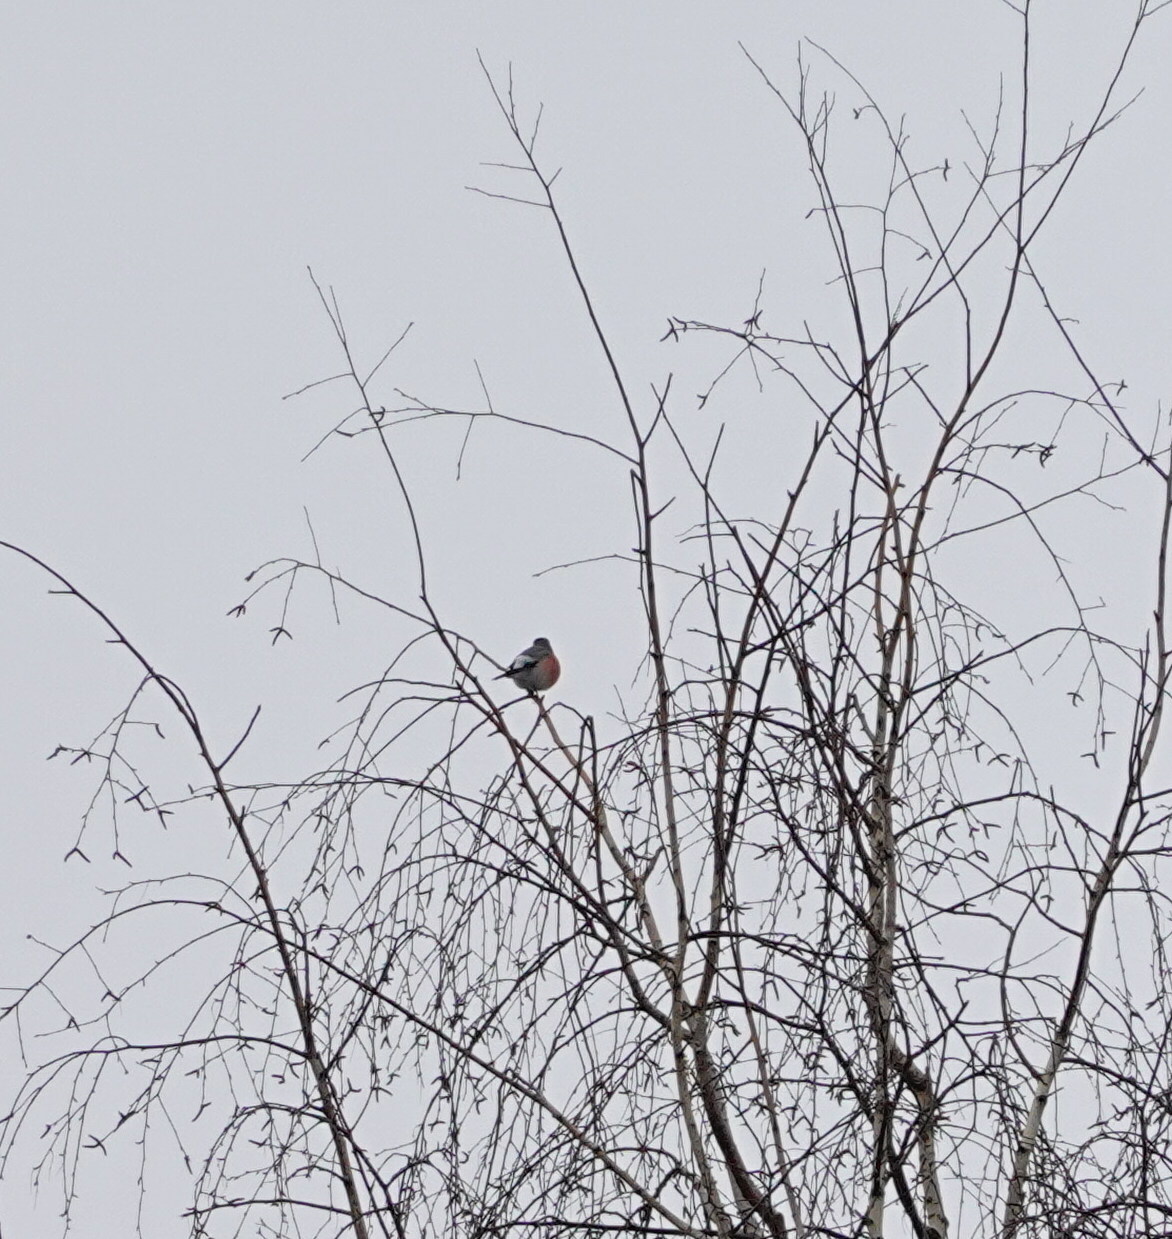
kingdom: Animalia
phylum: Chordata
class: Aves
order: Passeriformes
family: Fringillidae
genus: Pyrrhula
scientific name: Pyrrhula pyrrhula
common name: Eurasian bullfinch
